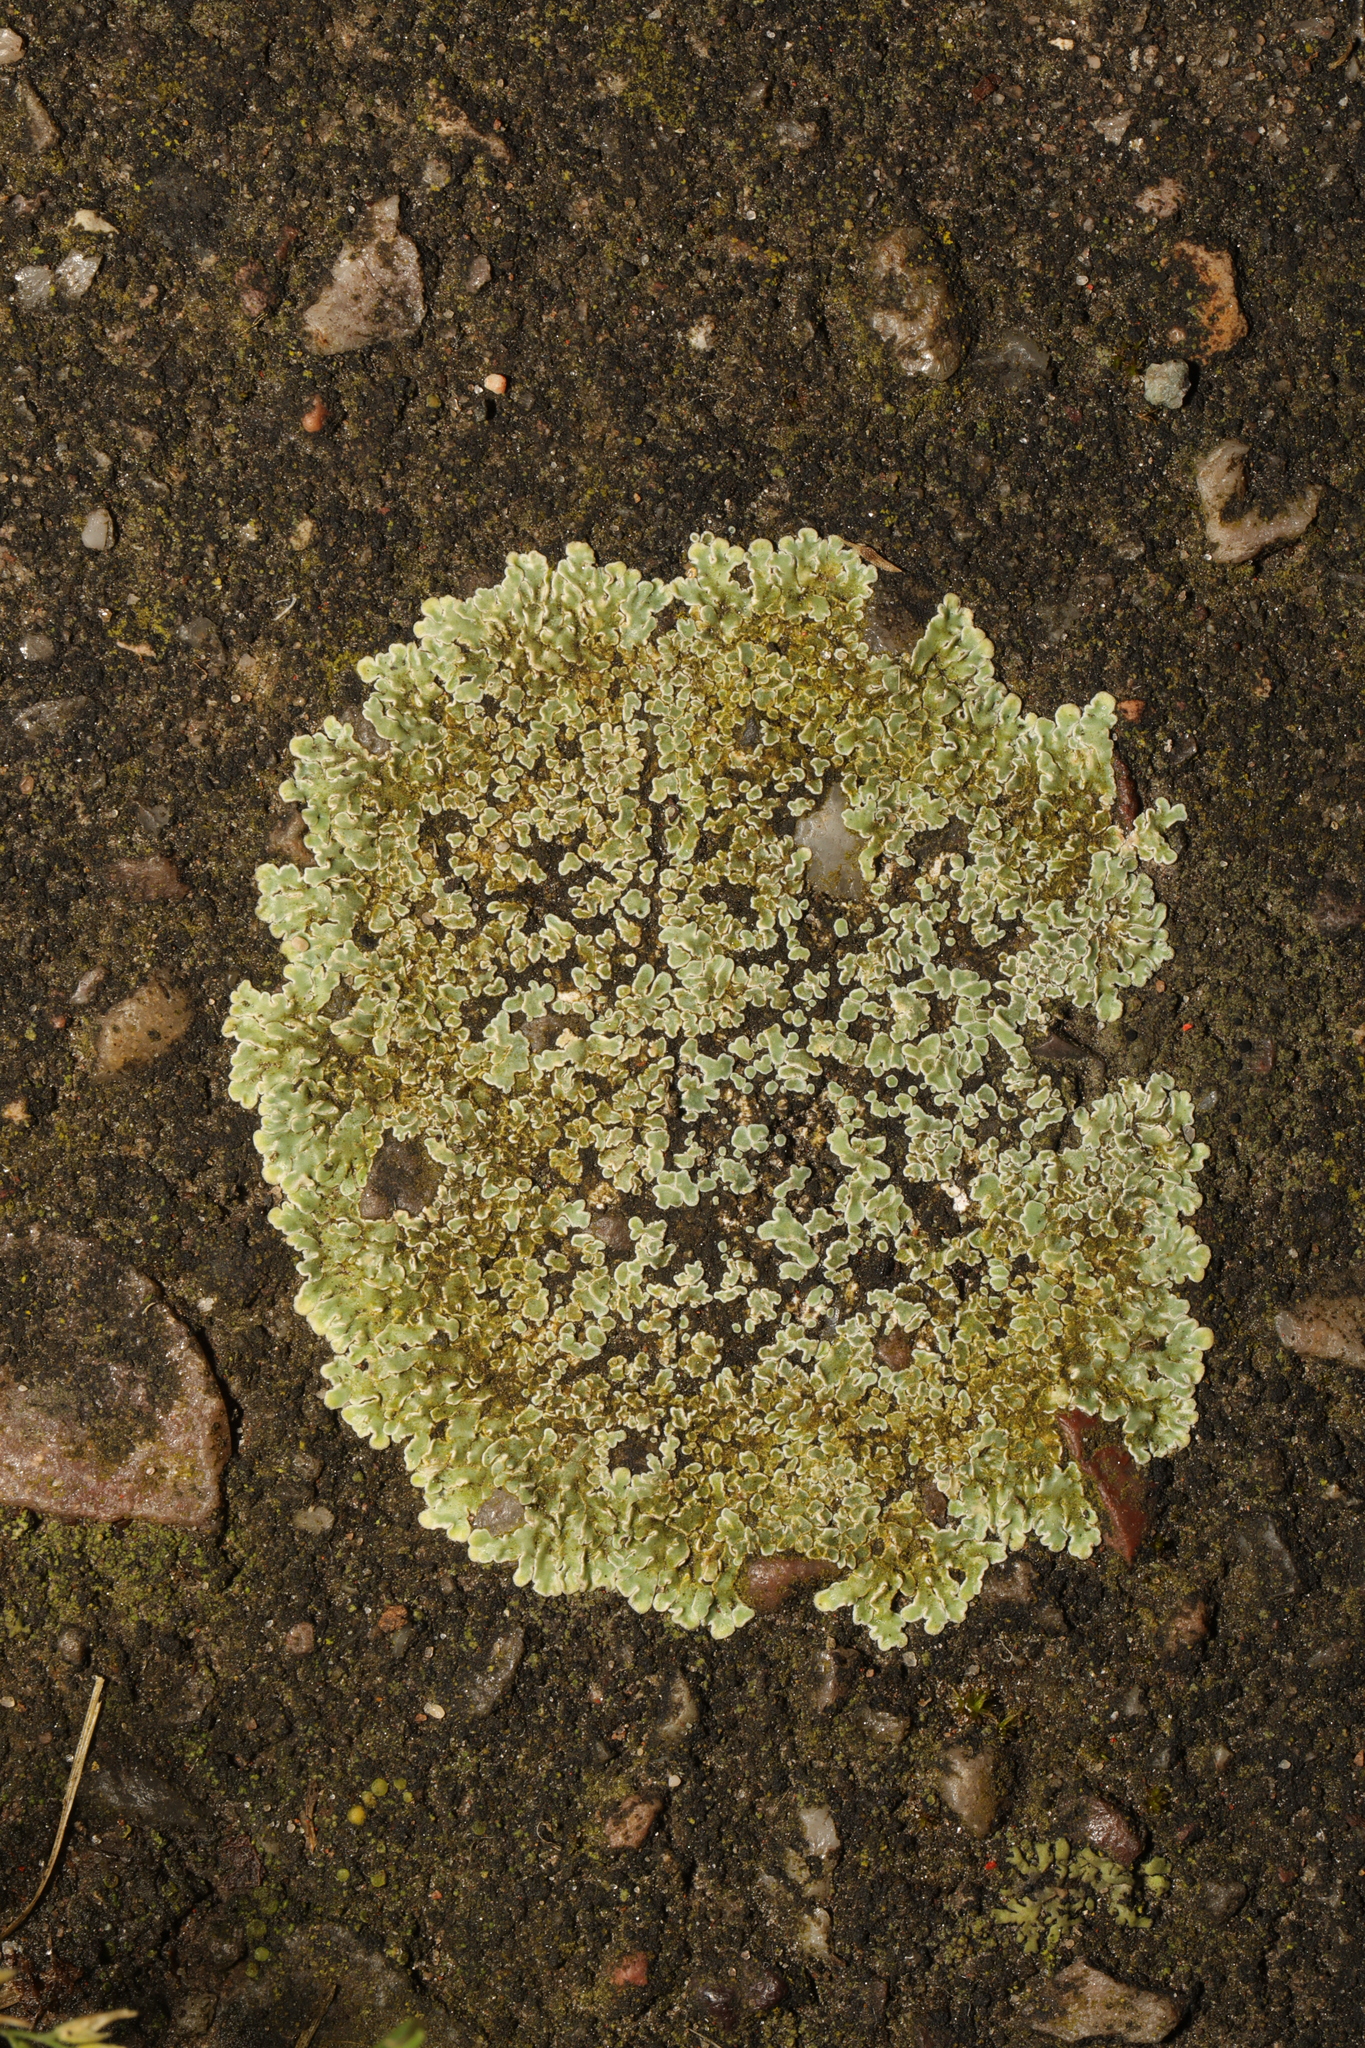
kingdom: Fungi
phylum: Ascomycota
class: Lecanoromycetes
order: Lecanorales
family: Lecanoraceae
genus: Protoparmeliopsis
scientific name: Protoparmeliopsis muralis
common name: Stonewall rim lichen
